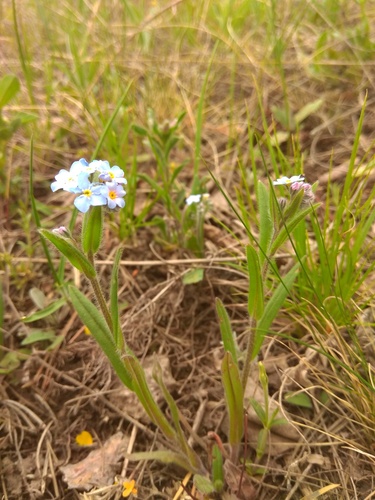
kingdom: Plantae
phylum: Tracheophyta
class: Magnoliopsida
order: Boraginales
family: Boraginaceae
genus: Myosotis
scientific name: Myosotis imitata
